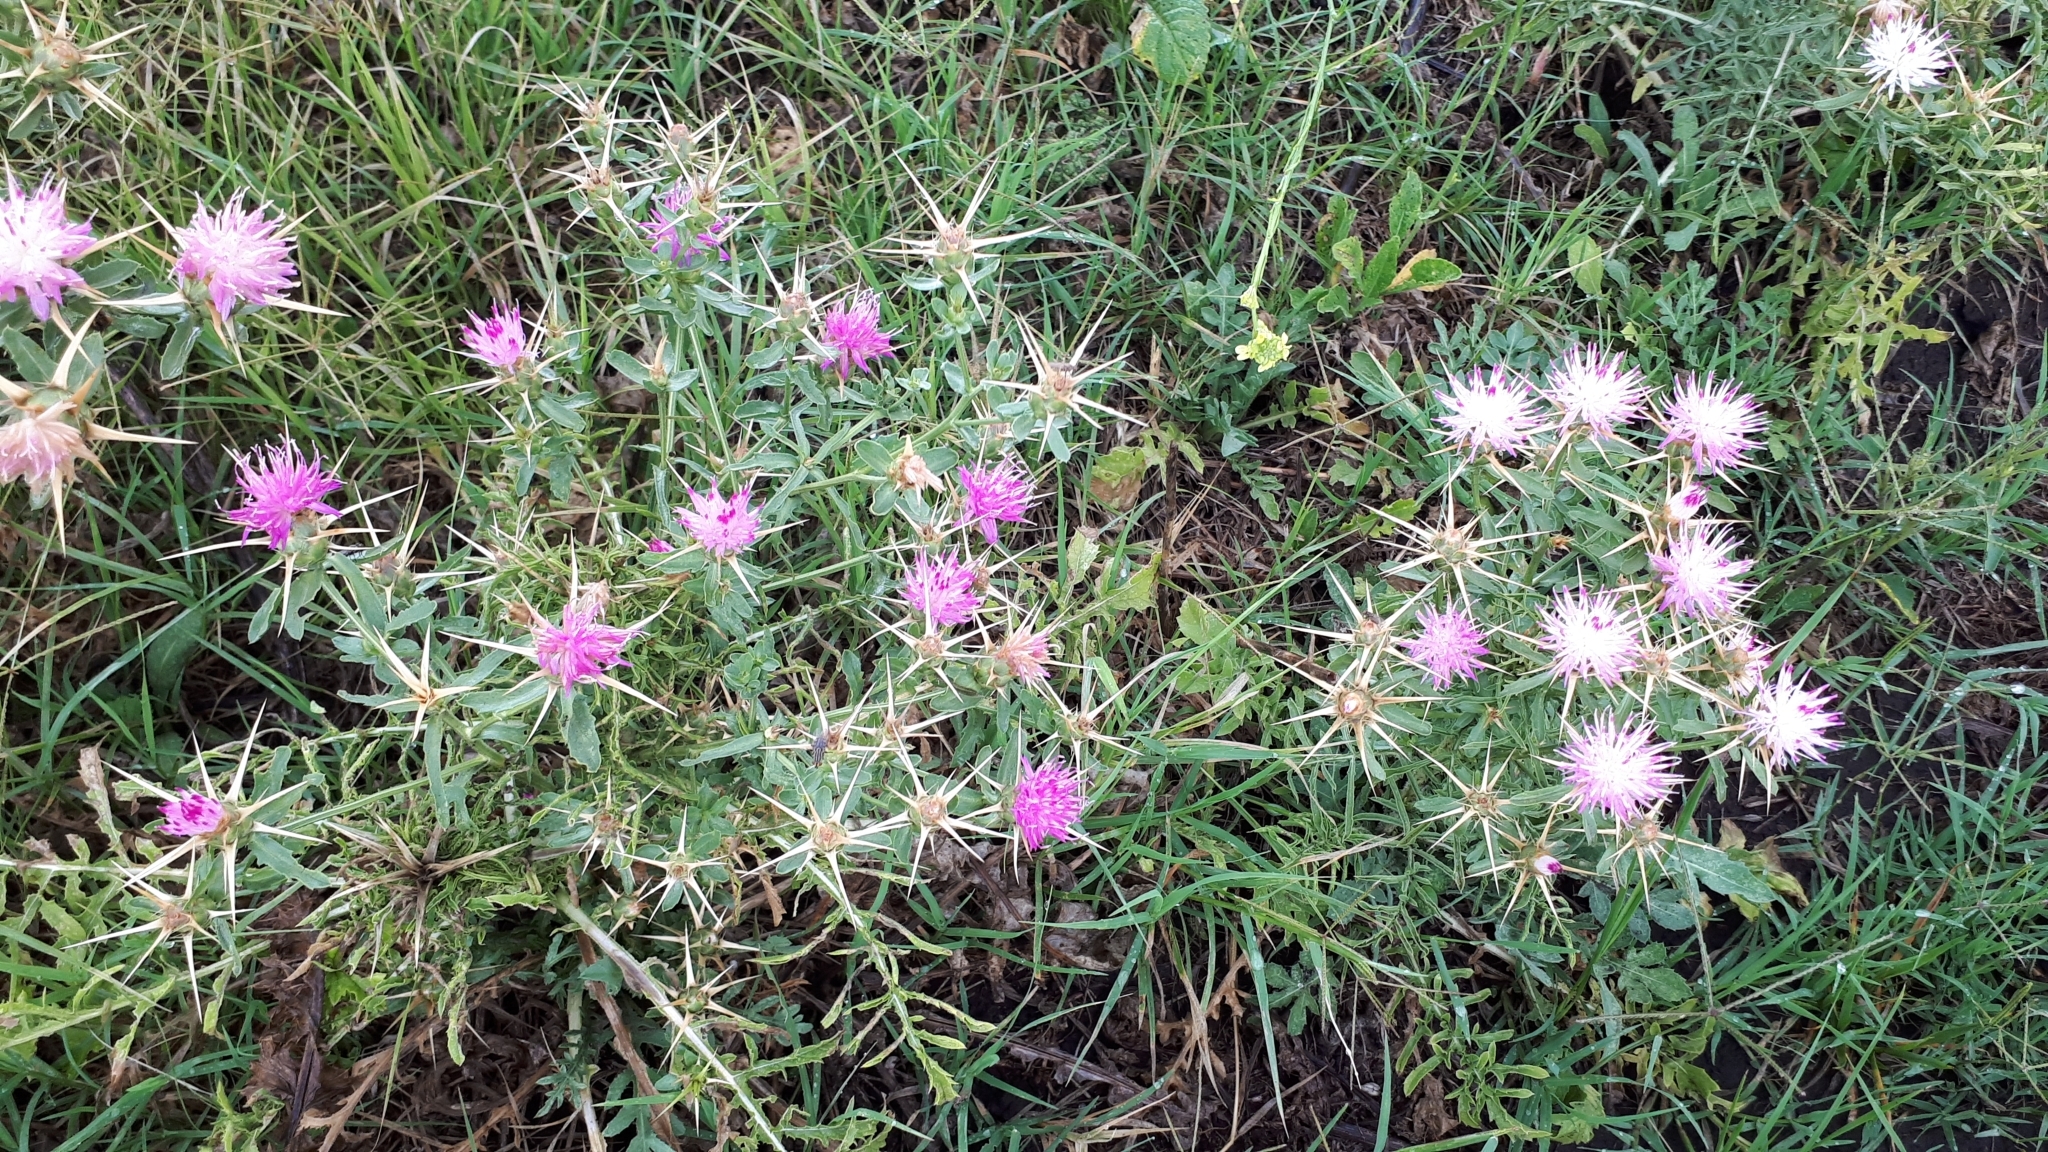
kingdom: Plantae
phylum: Tracheophyta
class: Magnoliopsida
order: Asterales
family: Asteraceae
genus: Centaurea
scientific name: Centaurea iberica
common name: Iberian knapweed
